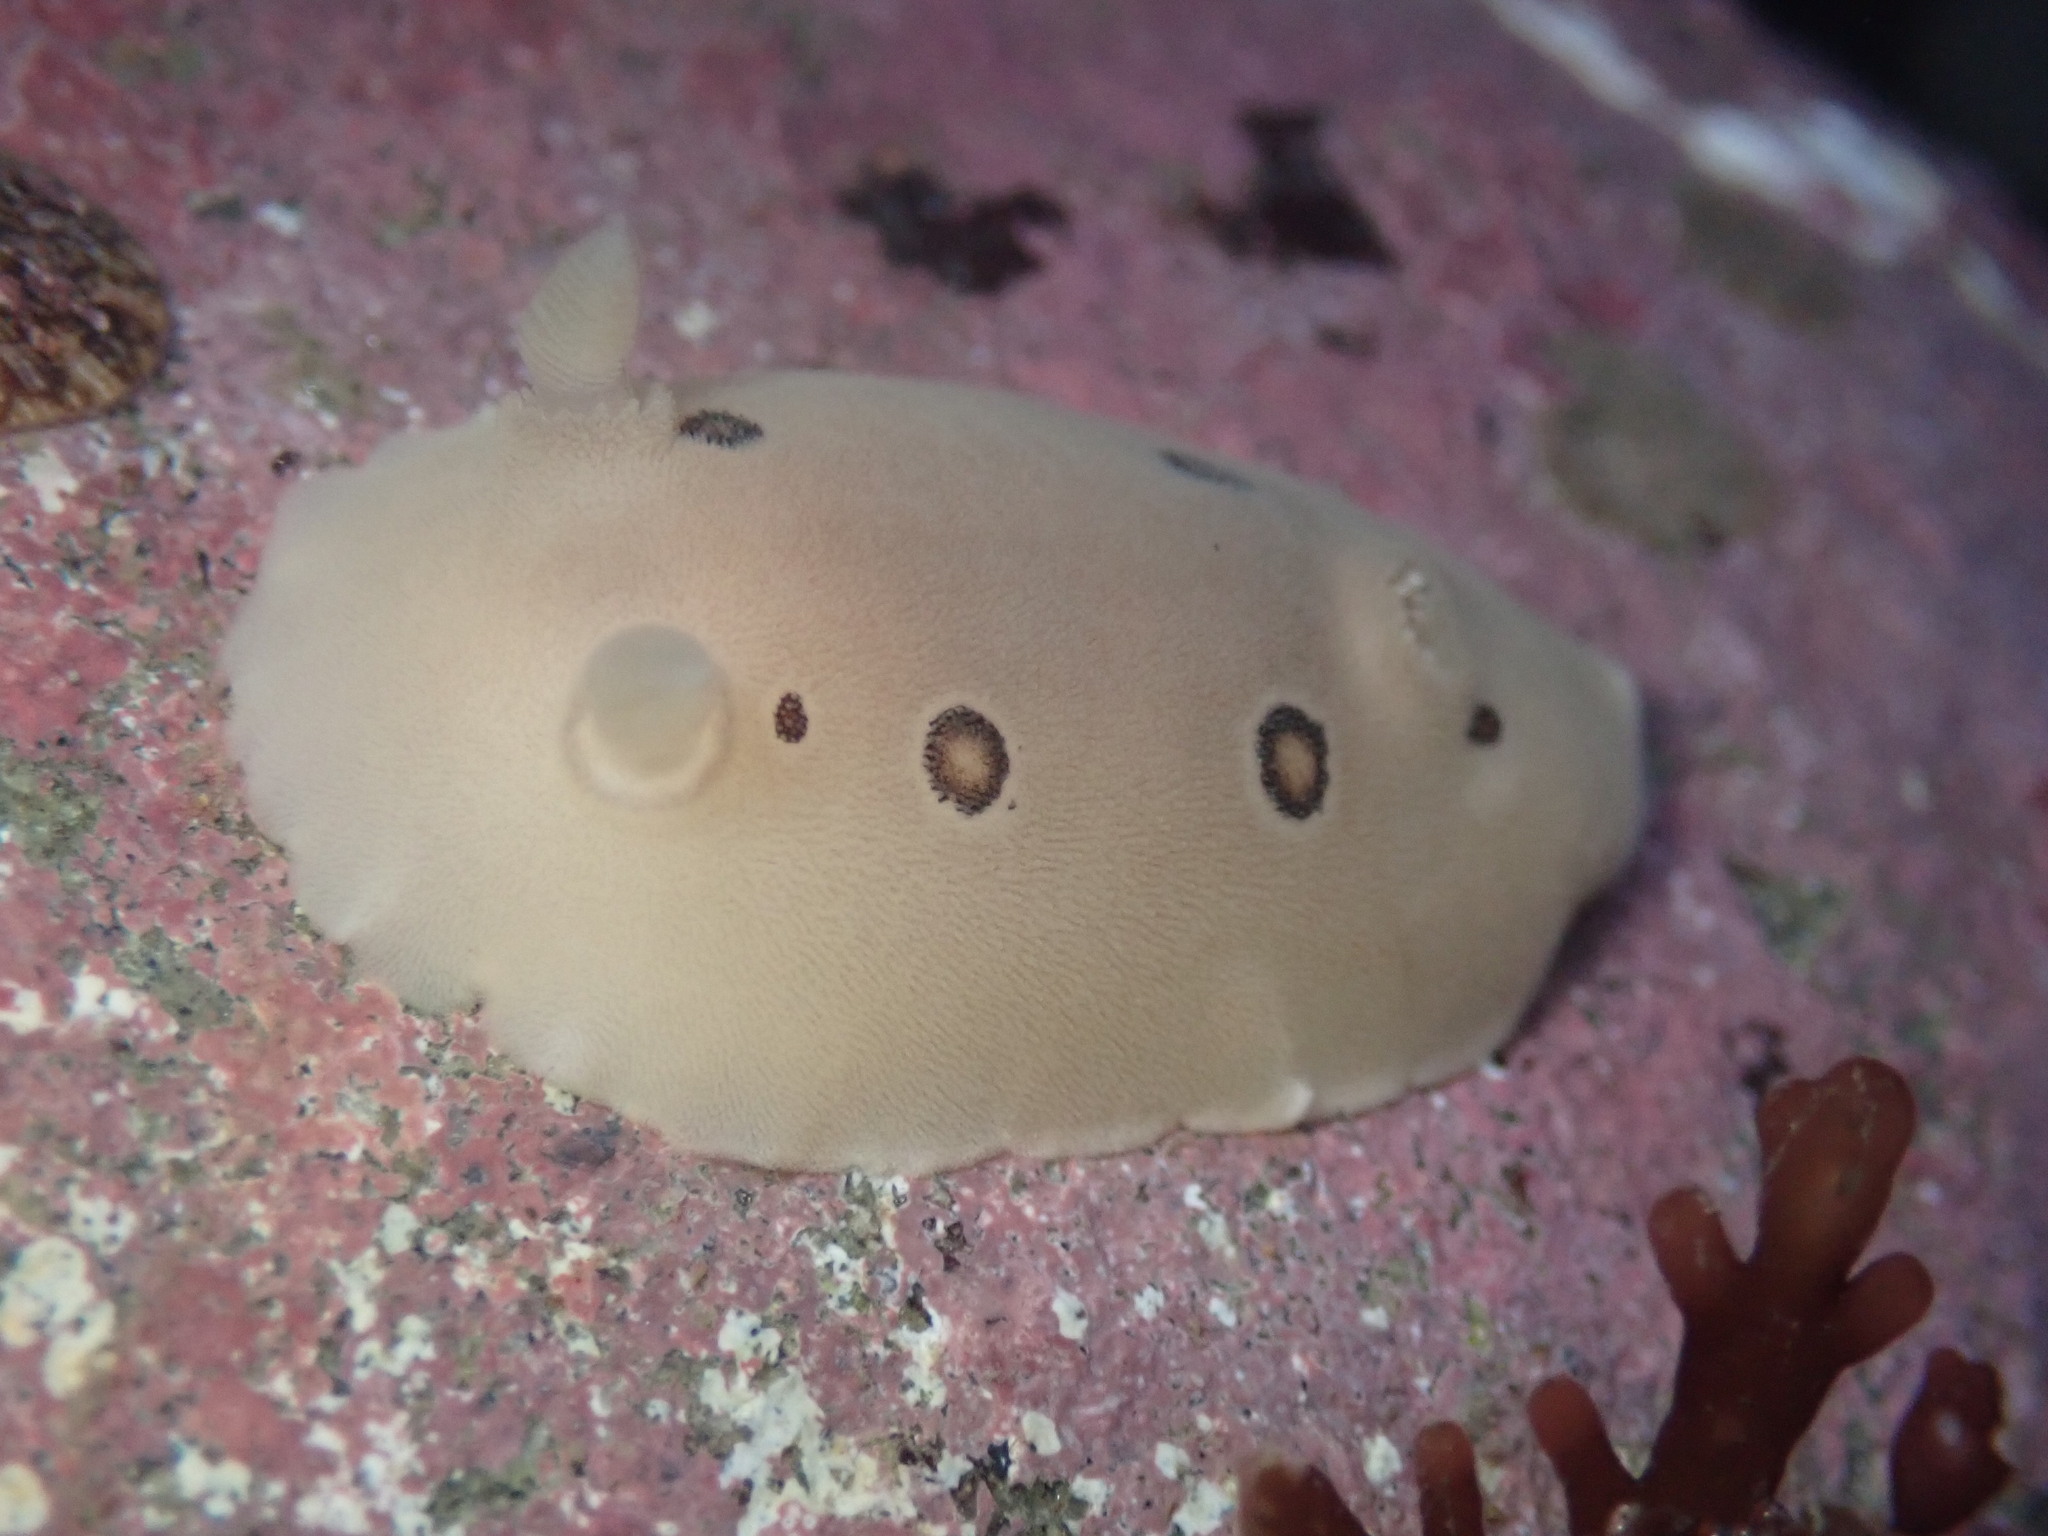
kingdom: Animalia
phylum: Mollusca
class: Gastropoda
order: Nudibranchia
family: Discodorididae
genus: Diaulula
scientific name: Diaulula sandiegensis
